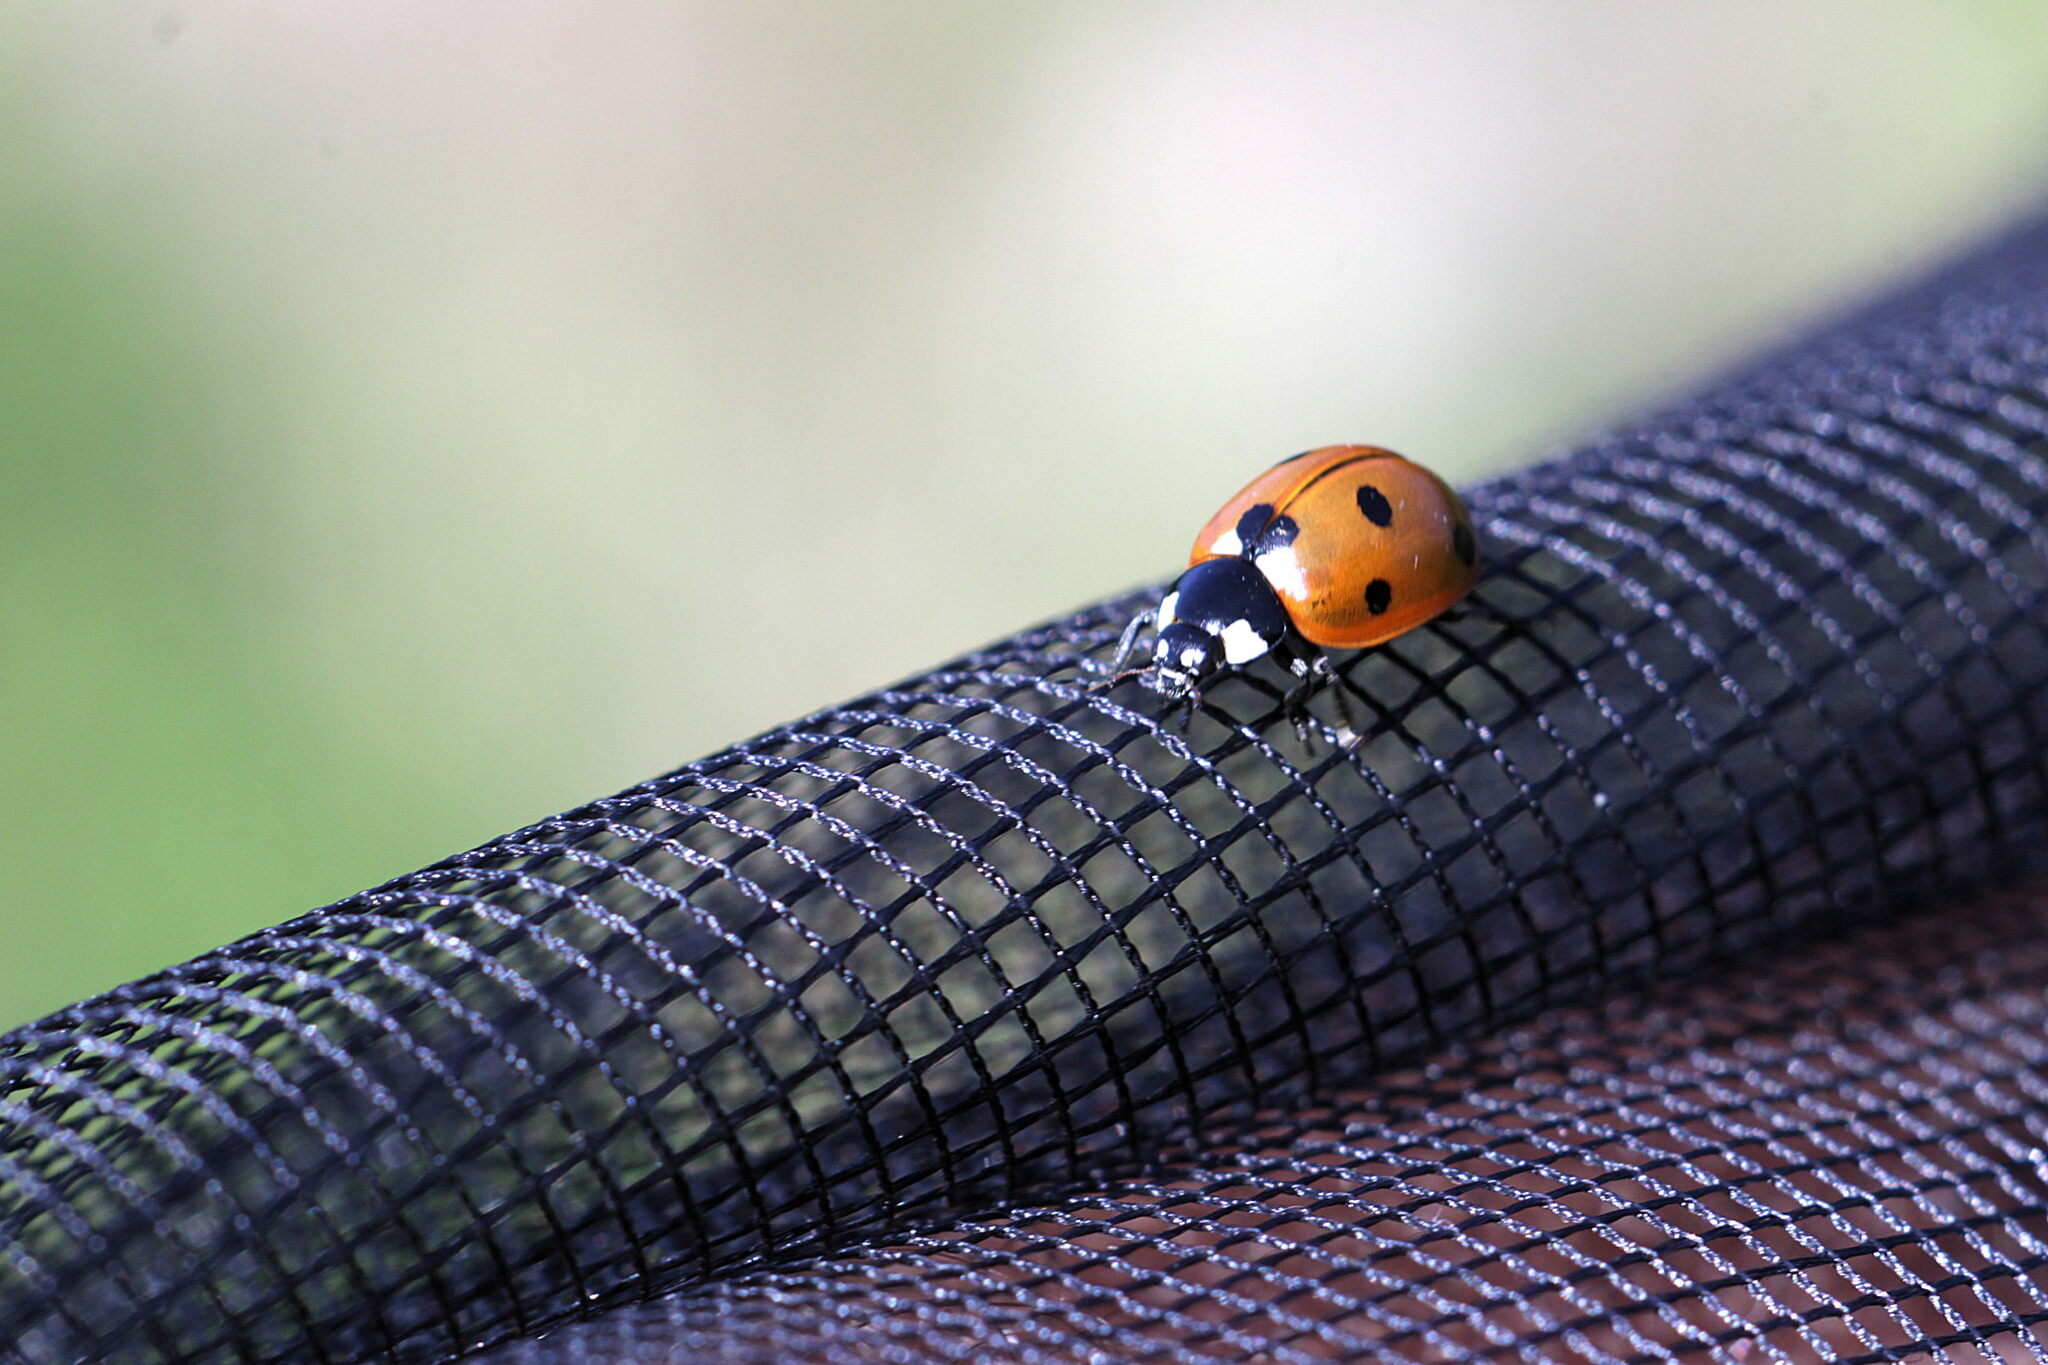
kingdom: Animalia
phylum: Arthropoda
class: Insecta
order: Coleoptera
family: Coccinellidae
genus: Coccinella
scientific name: Coccinella septempunctata
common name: Sevenspotted lady beetle
